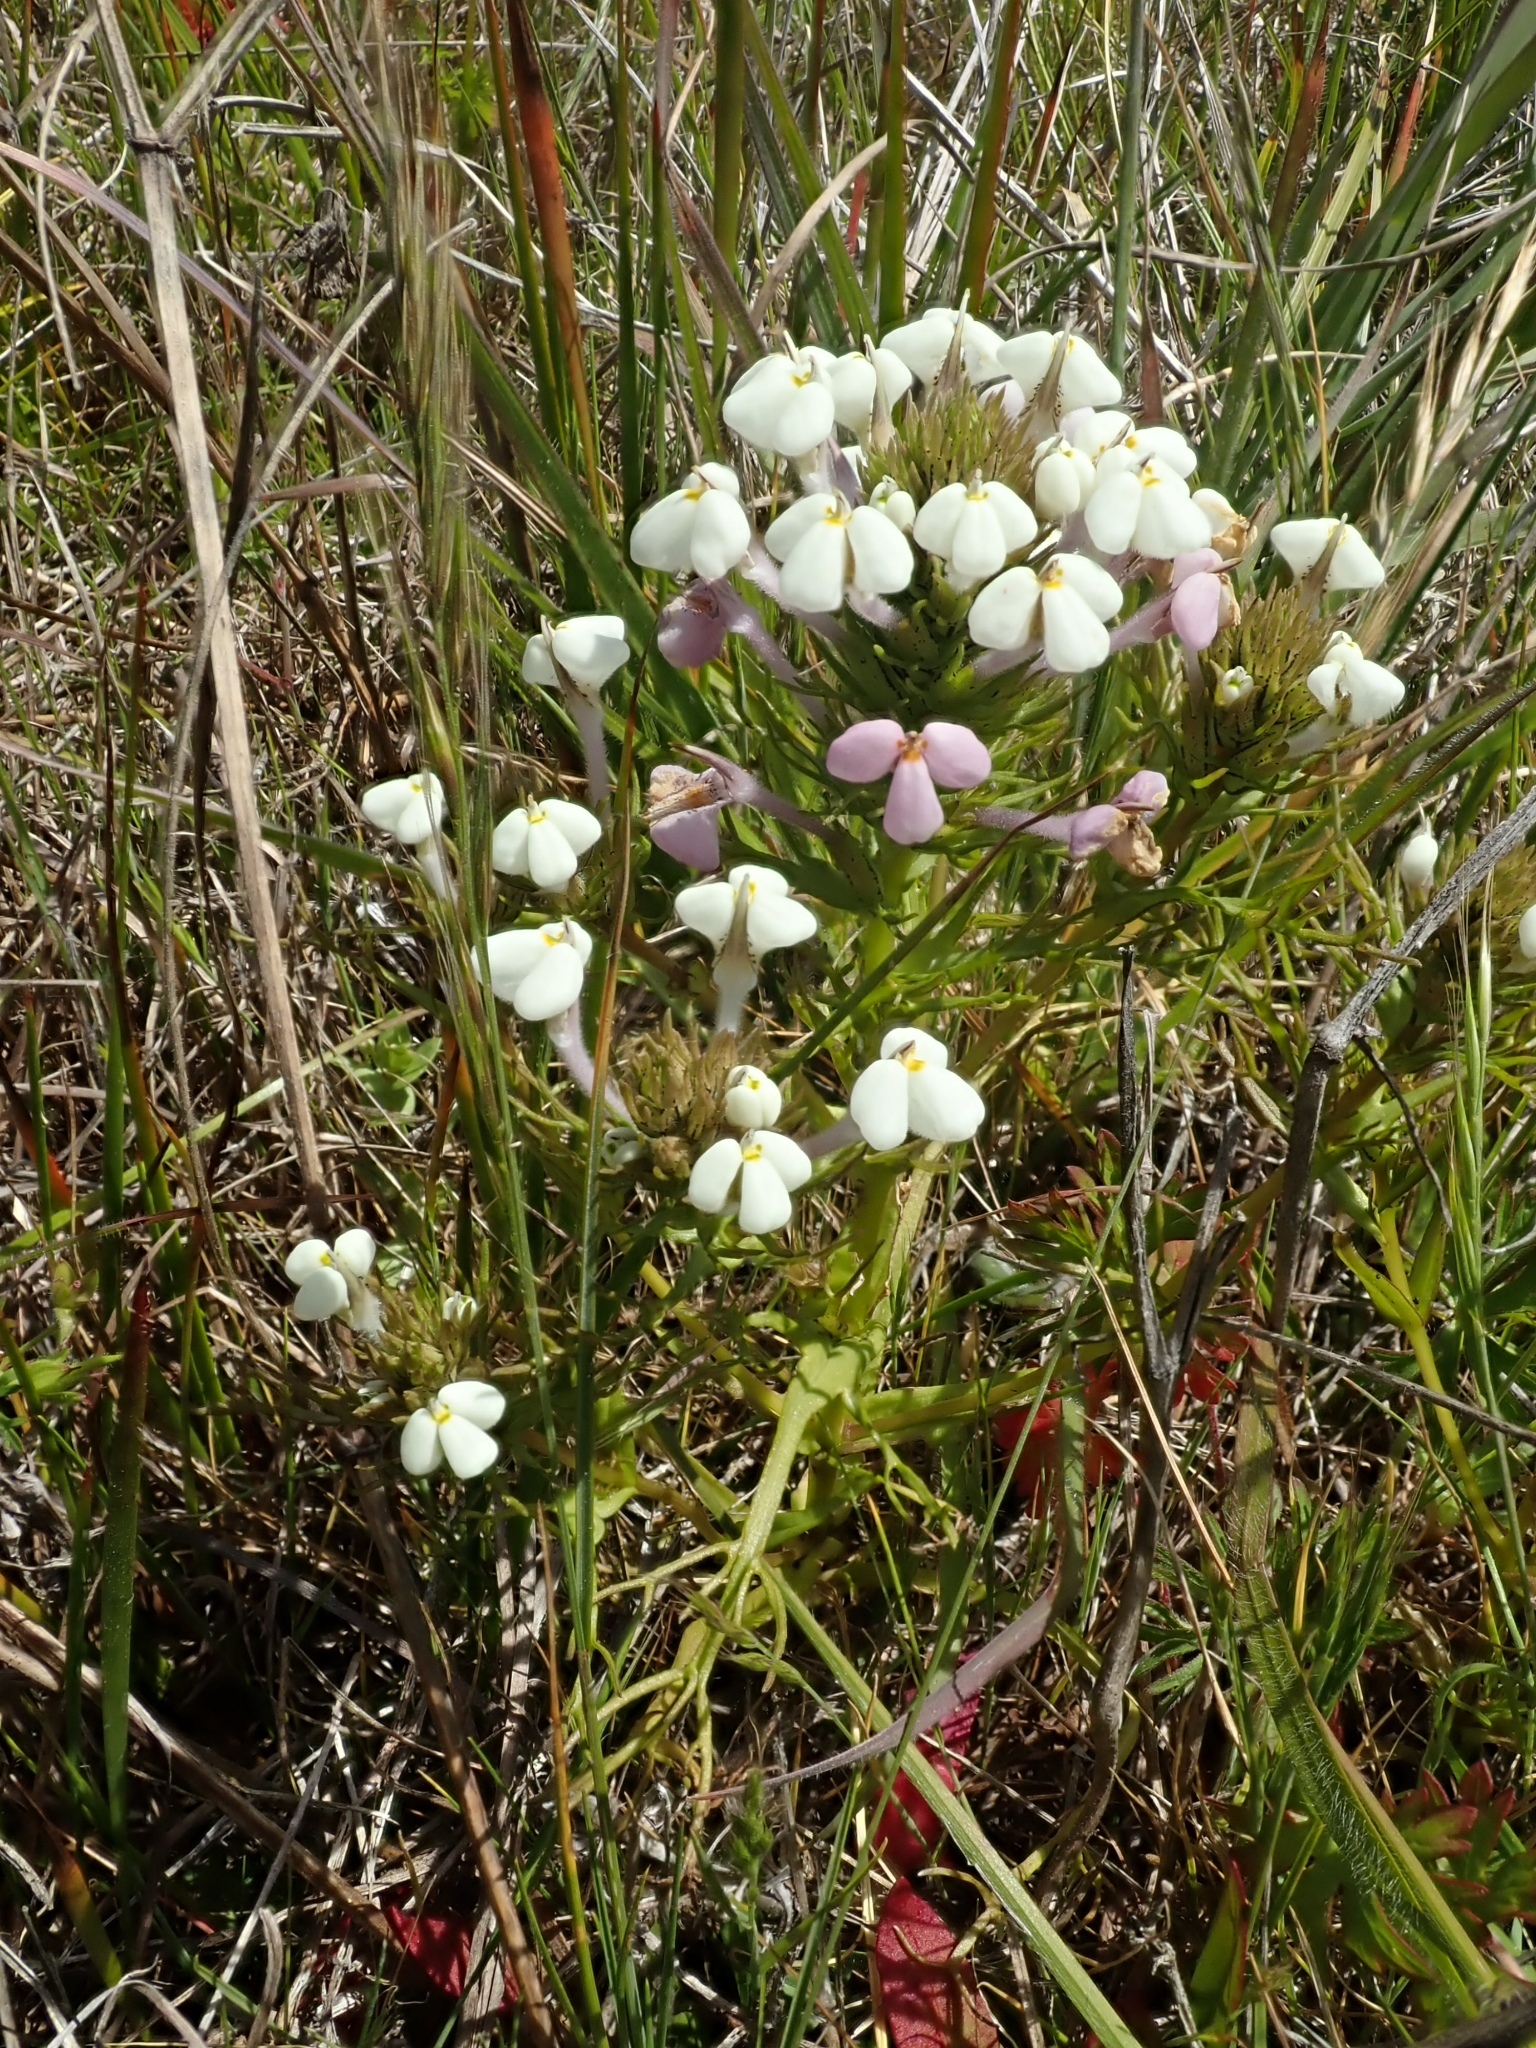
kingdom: Plantae
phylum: Tracheophyta
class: Magnoliopsida
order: Lamiales
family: Orobanchaceae
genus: Triphysaria
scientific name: Triphysaria versicolor
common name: Bearded false owl-clover
